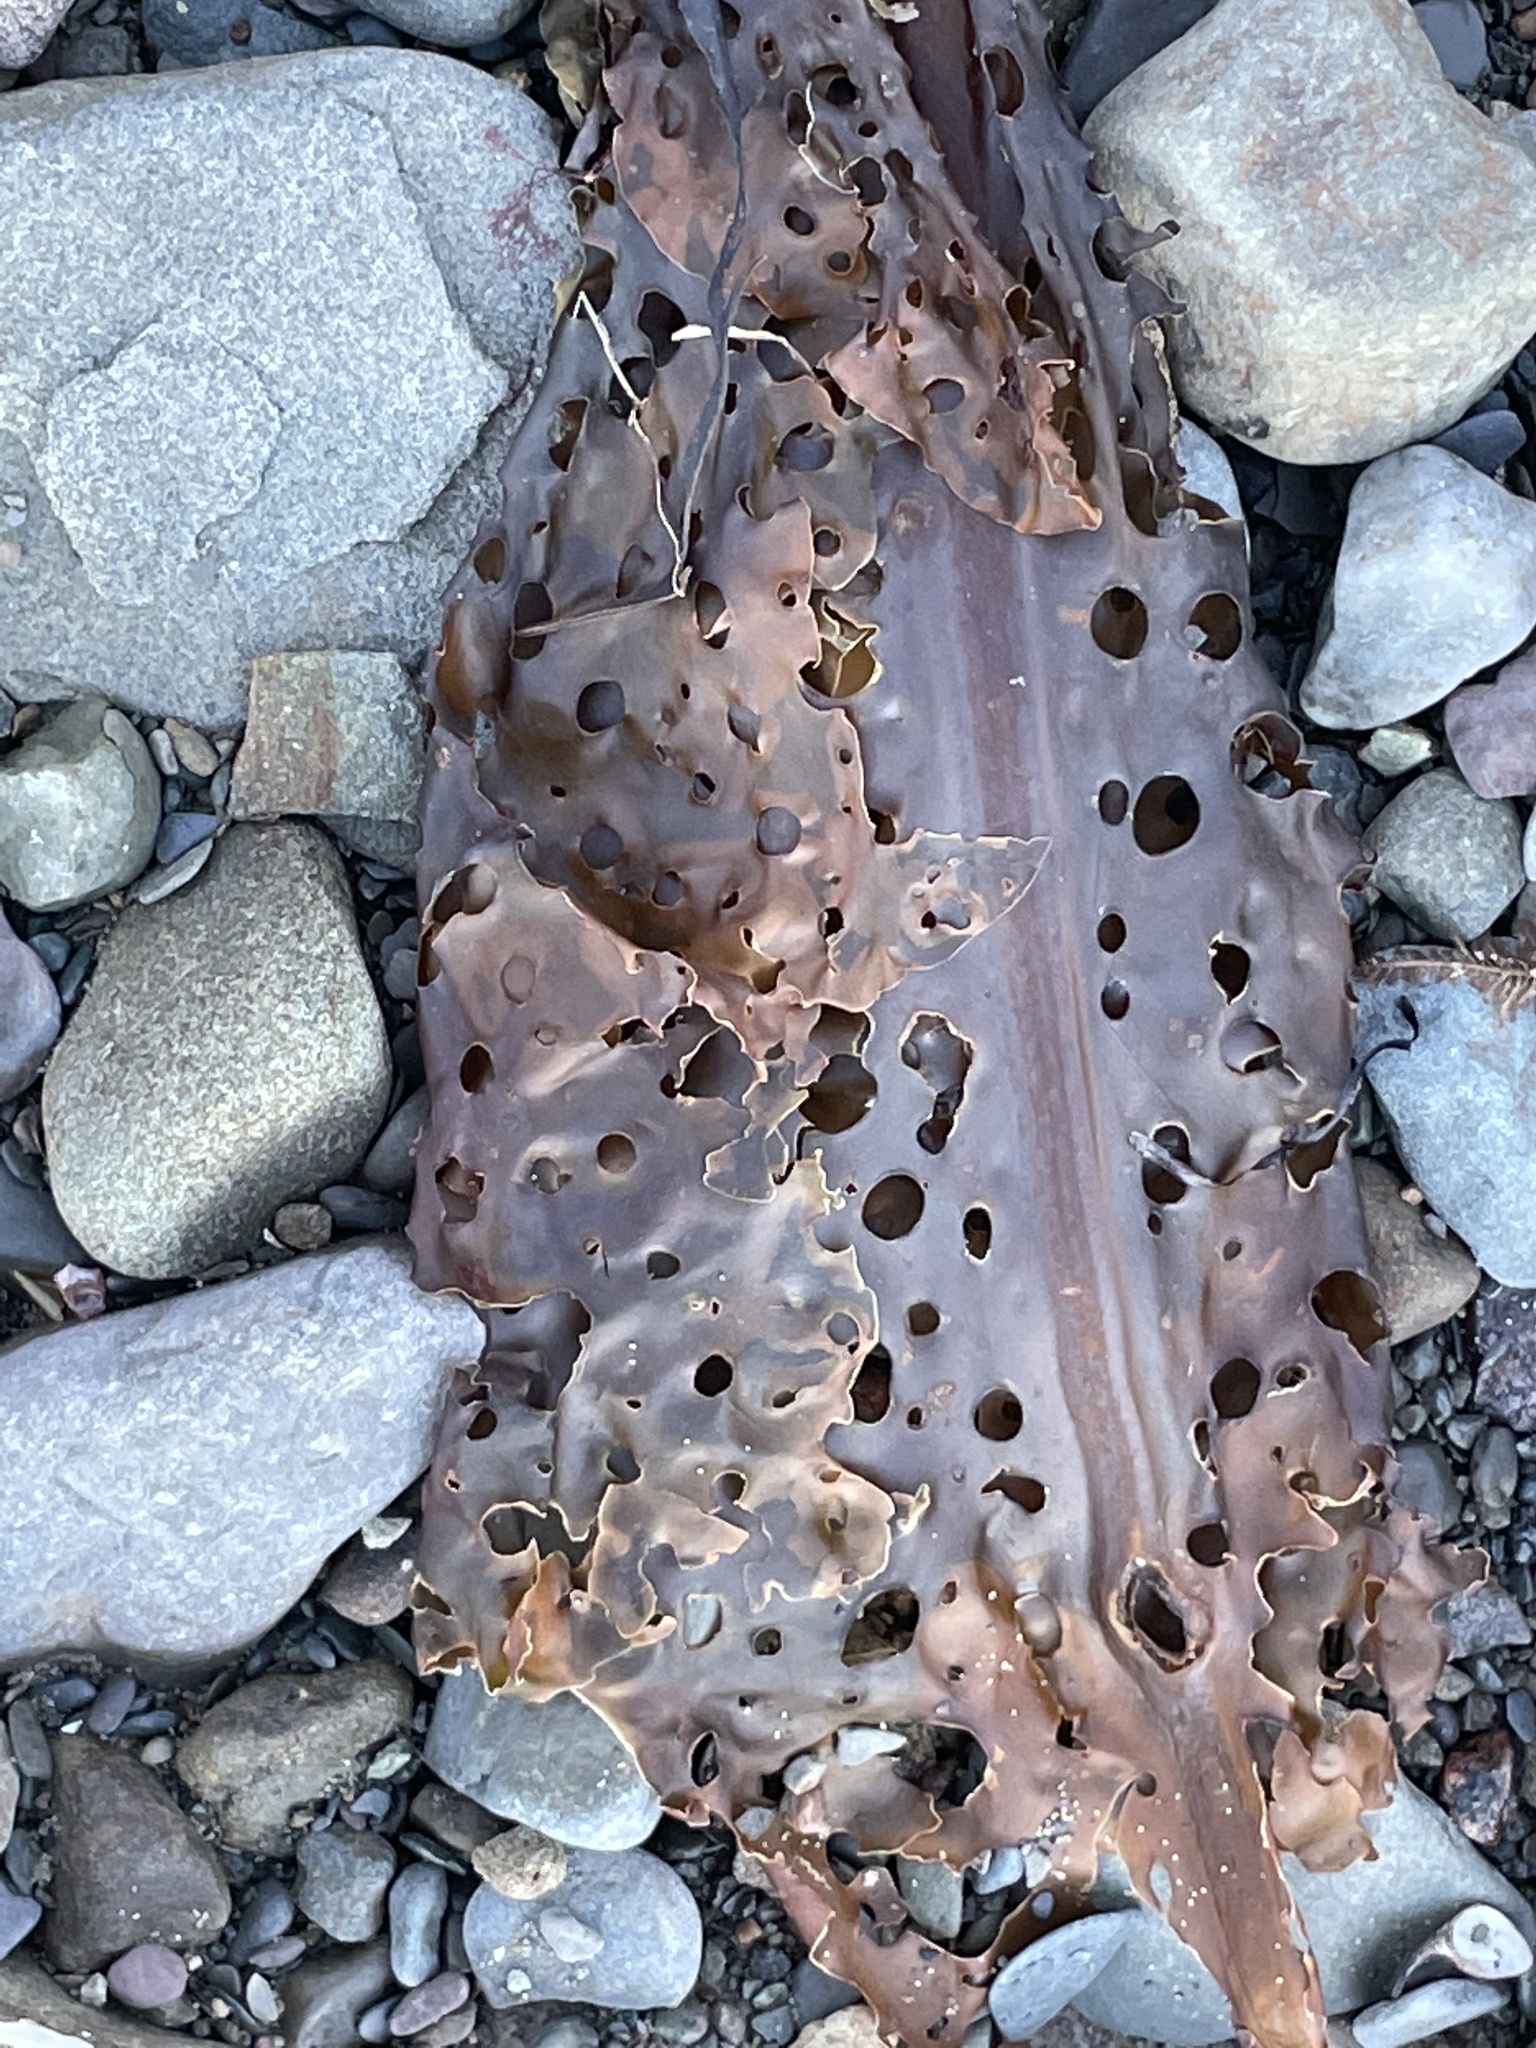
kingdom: Chromista
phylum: Ochrophyta
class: Phaeophyceae
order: Laminariales
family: Costariaceae
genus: Agarum
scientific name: Agarum clathratum
